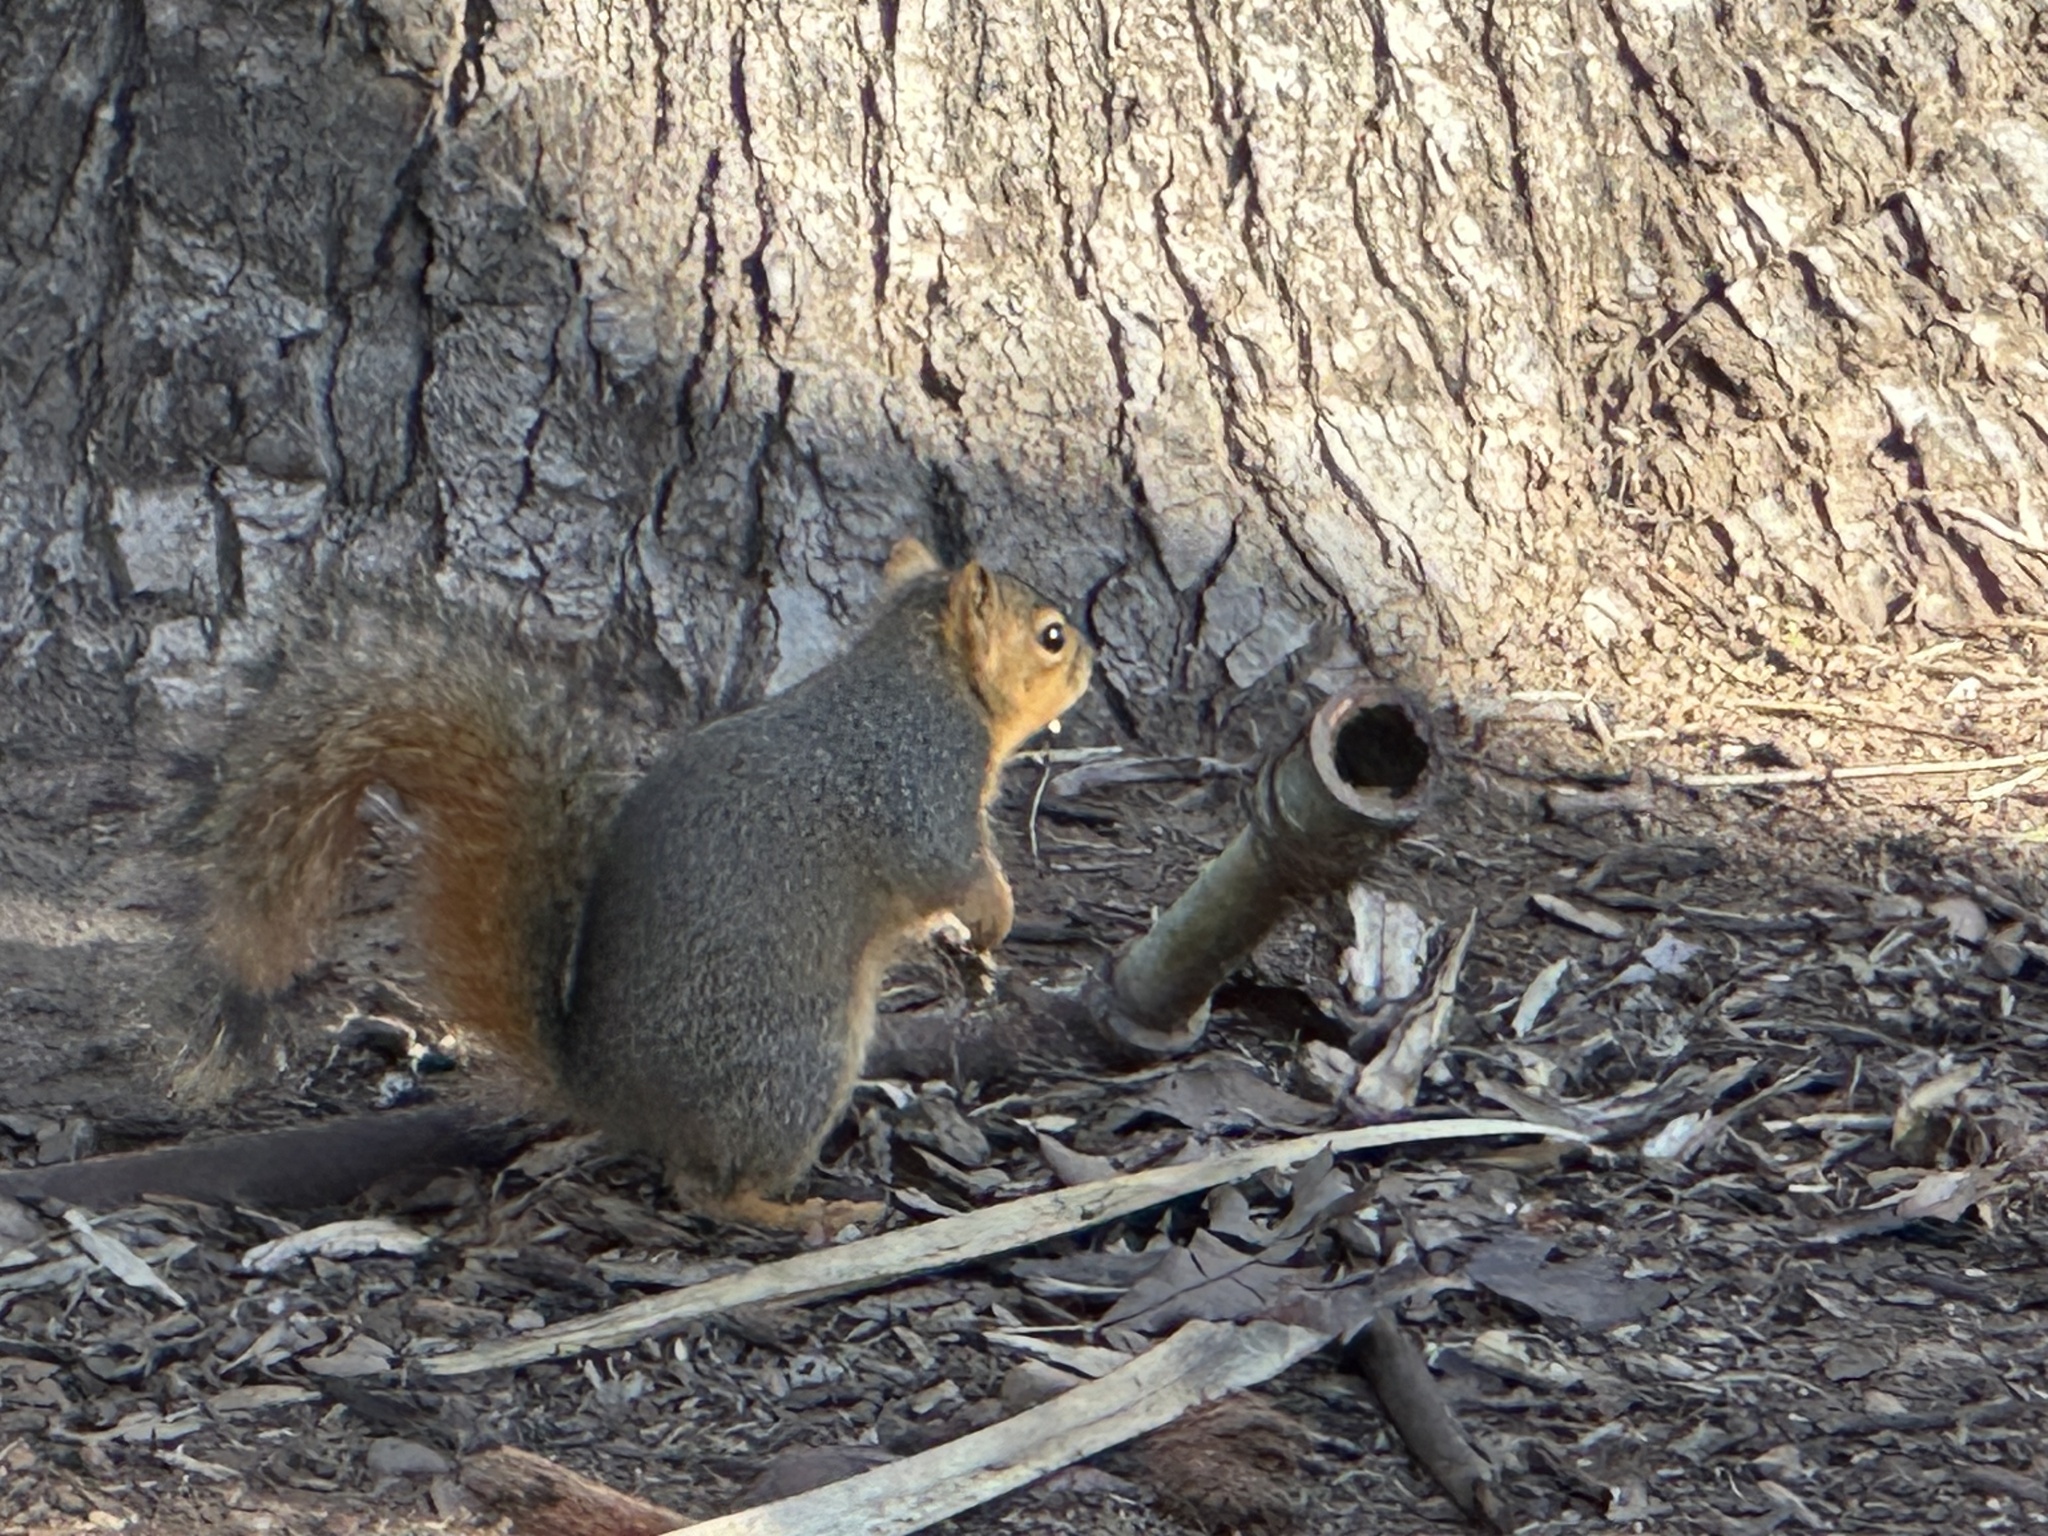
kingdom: Animalia
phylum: Chordata
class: Mammalia
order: Rodentia
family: Sciuridae
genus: Sciurus
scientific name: Sciurus niger
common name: Fox squirrel
